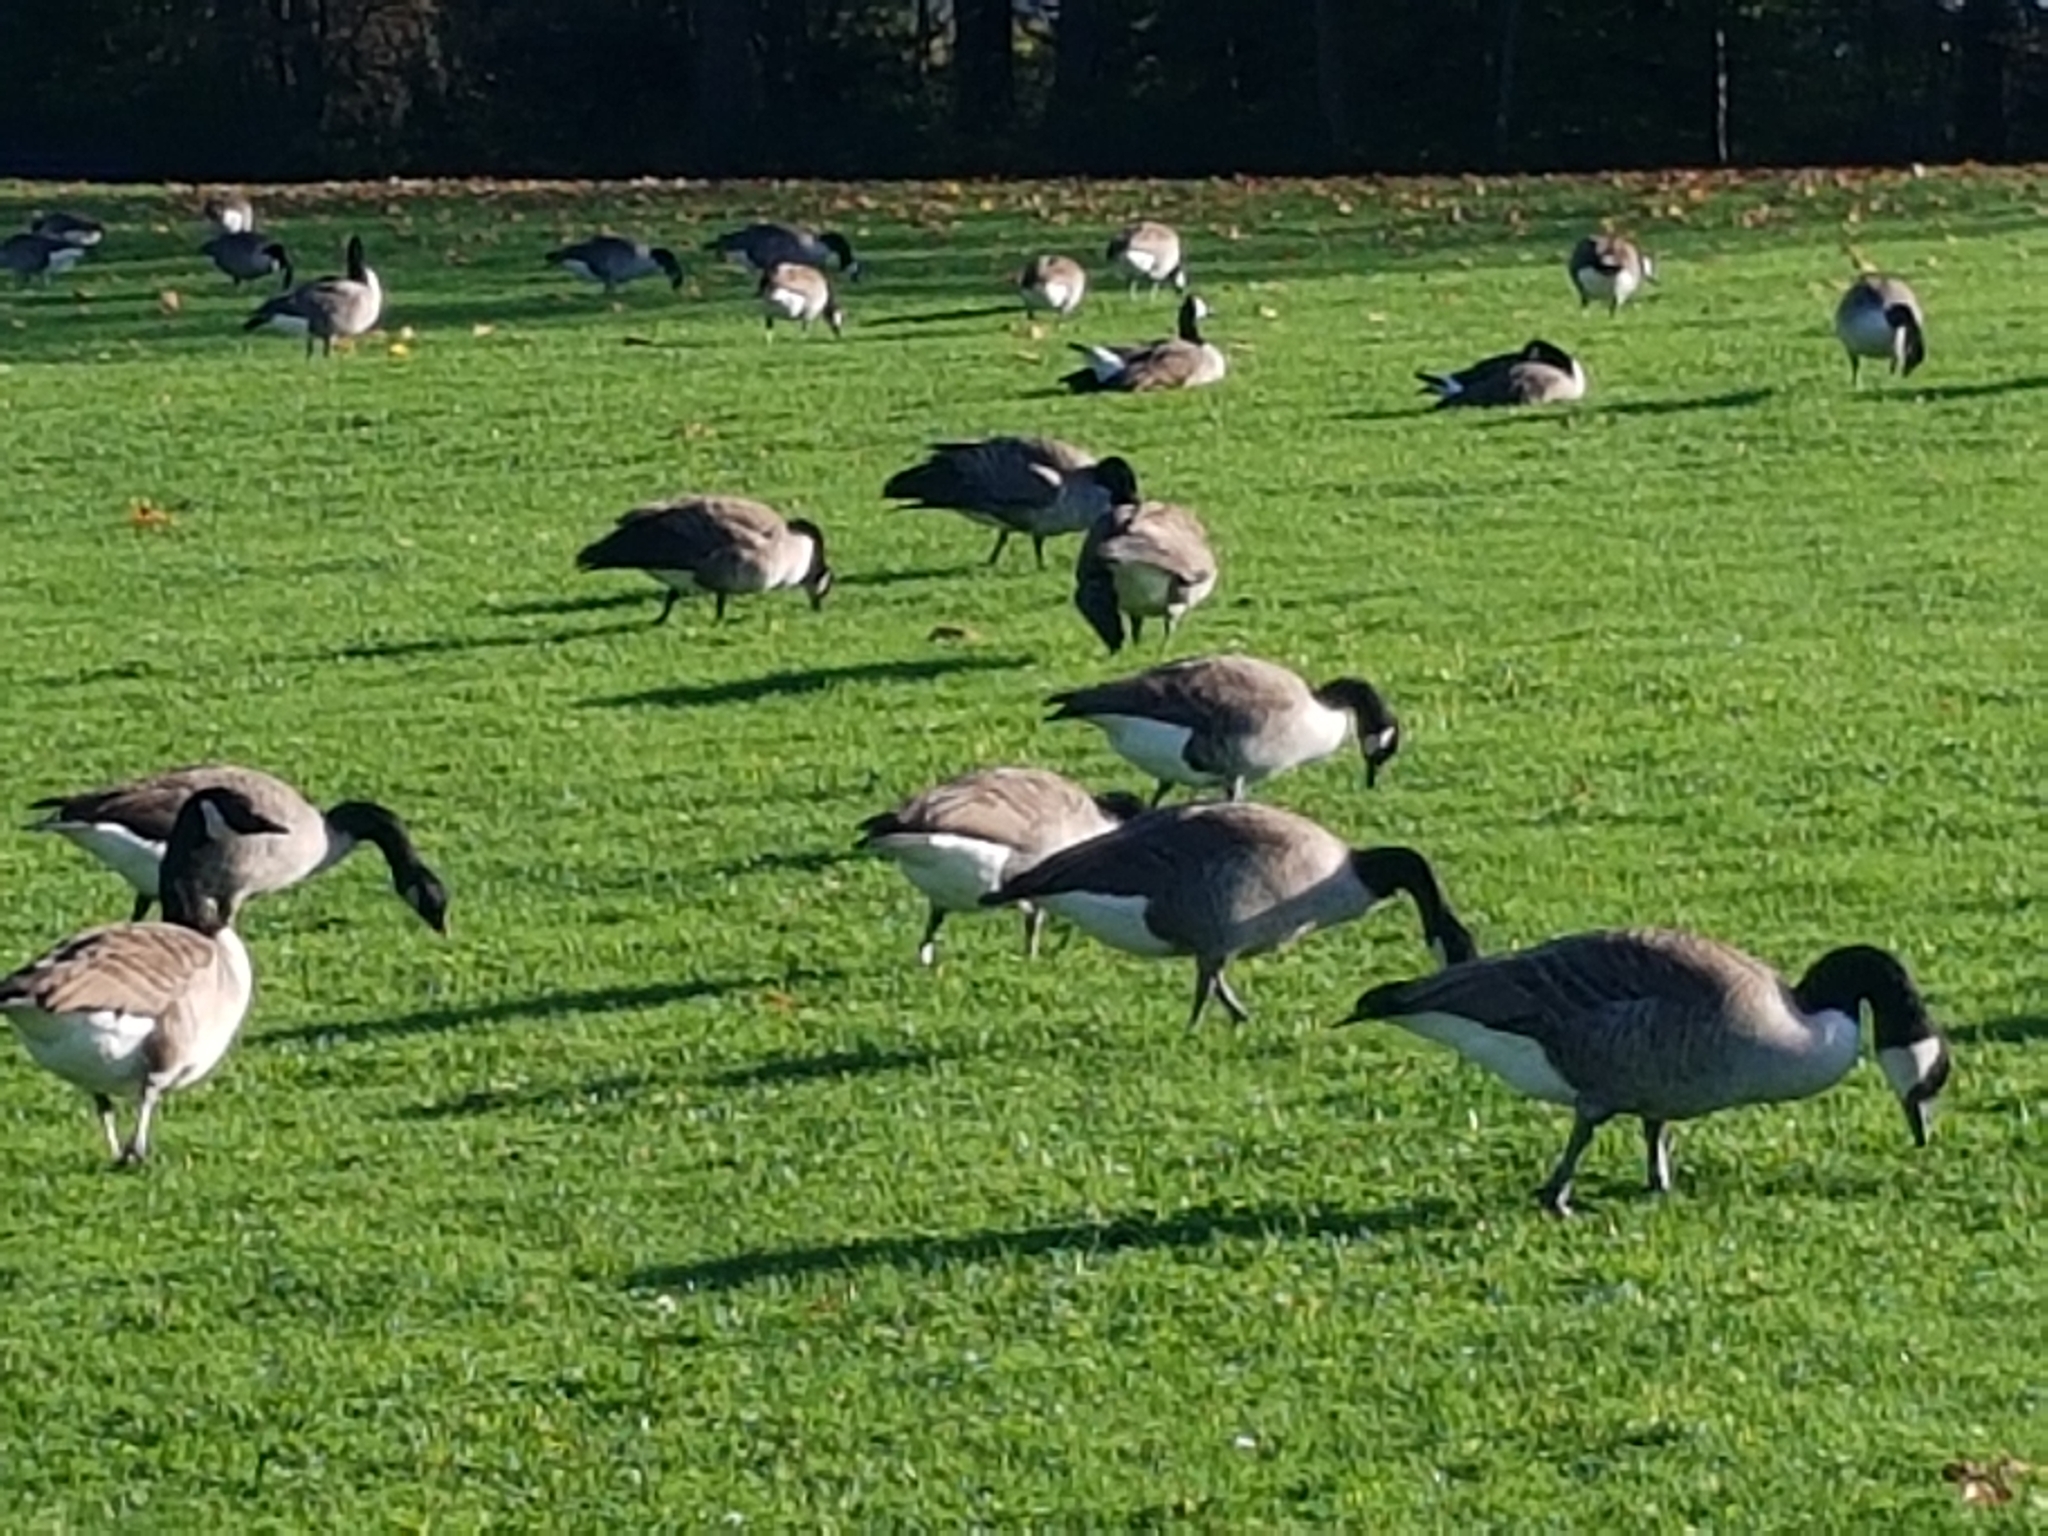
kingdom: Animalia
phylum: Chordata
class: Aves
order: Anseriformes
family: Anatidae
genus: Branta
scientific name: Branta canadensis
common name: Canada goose
